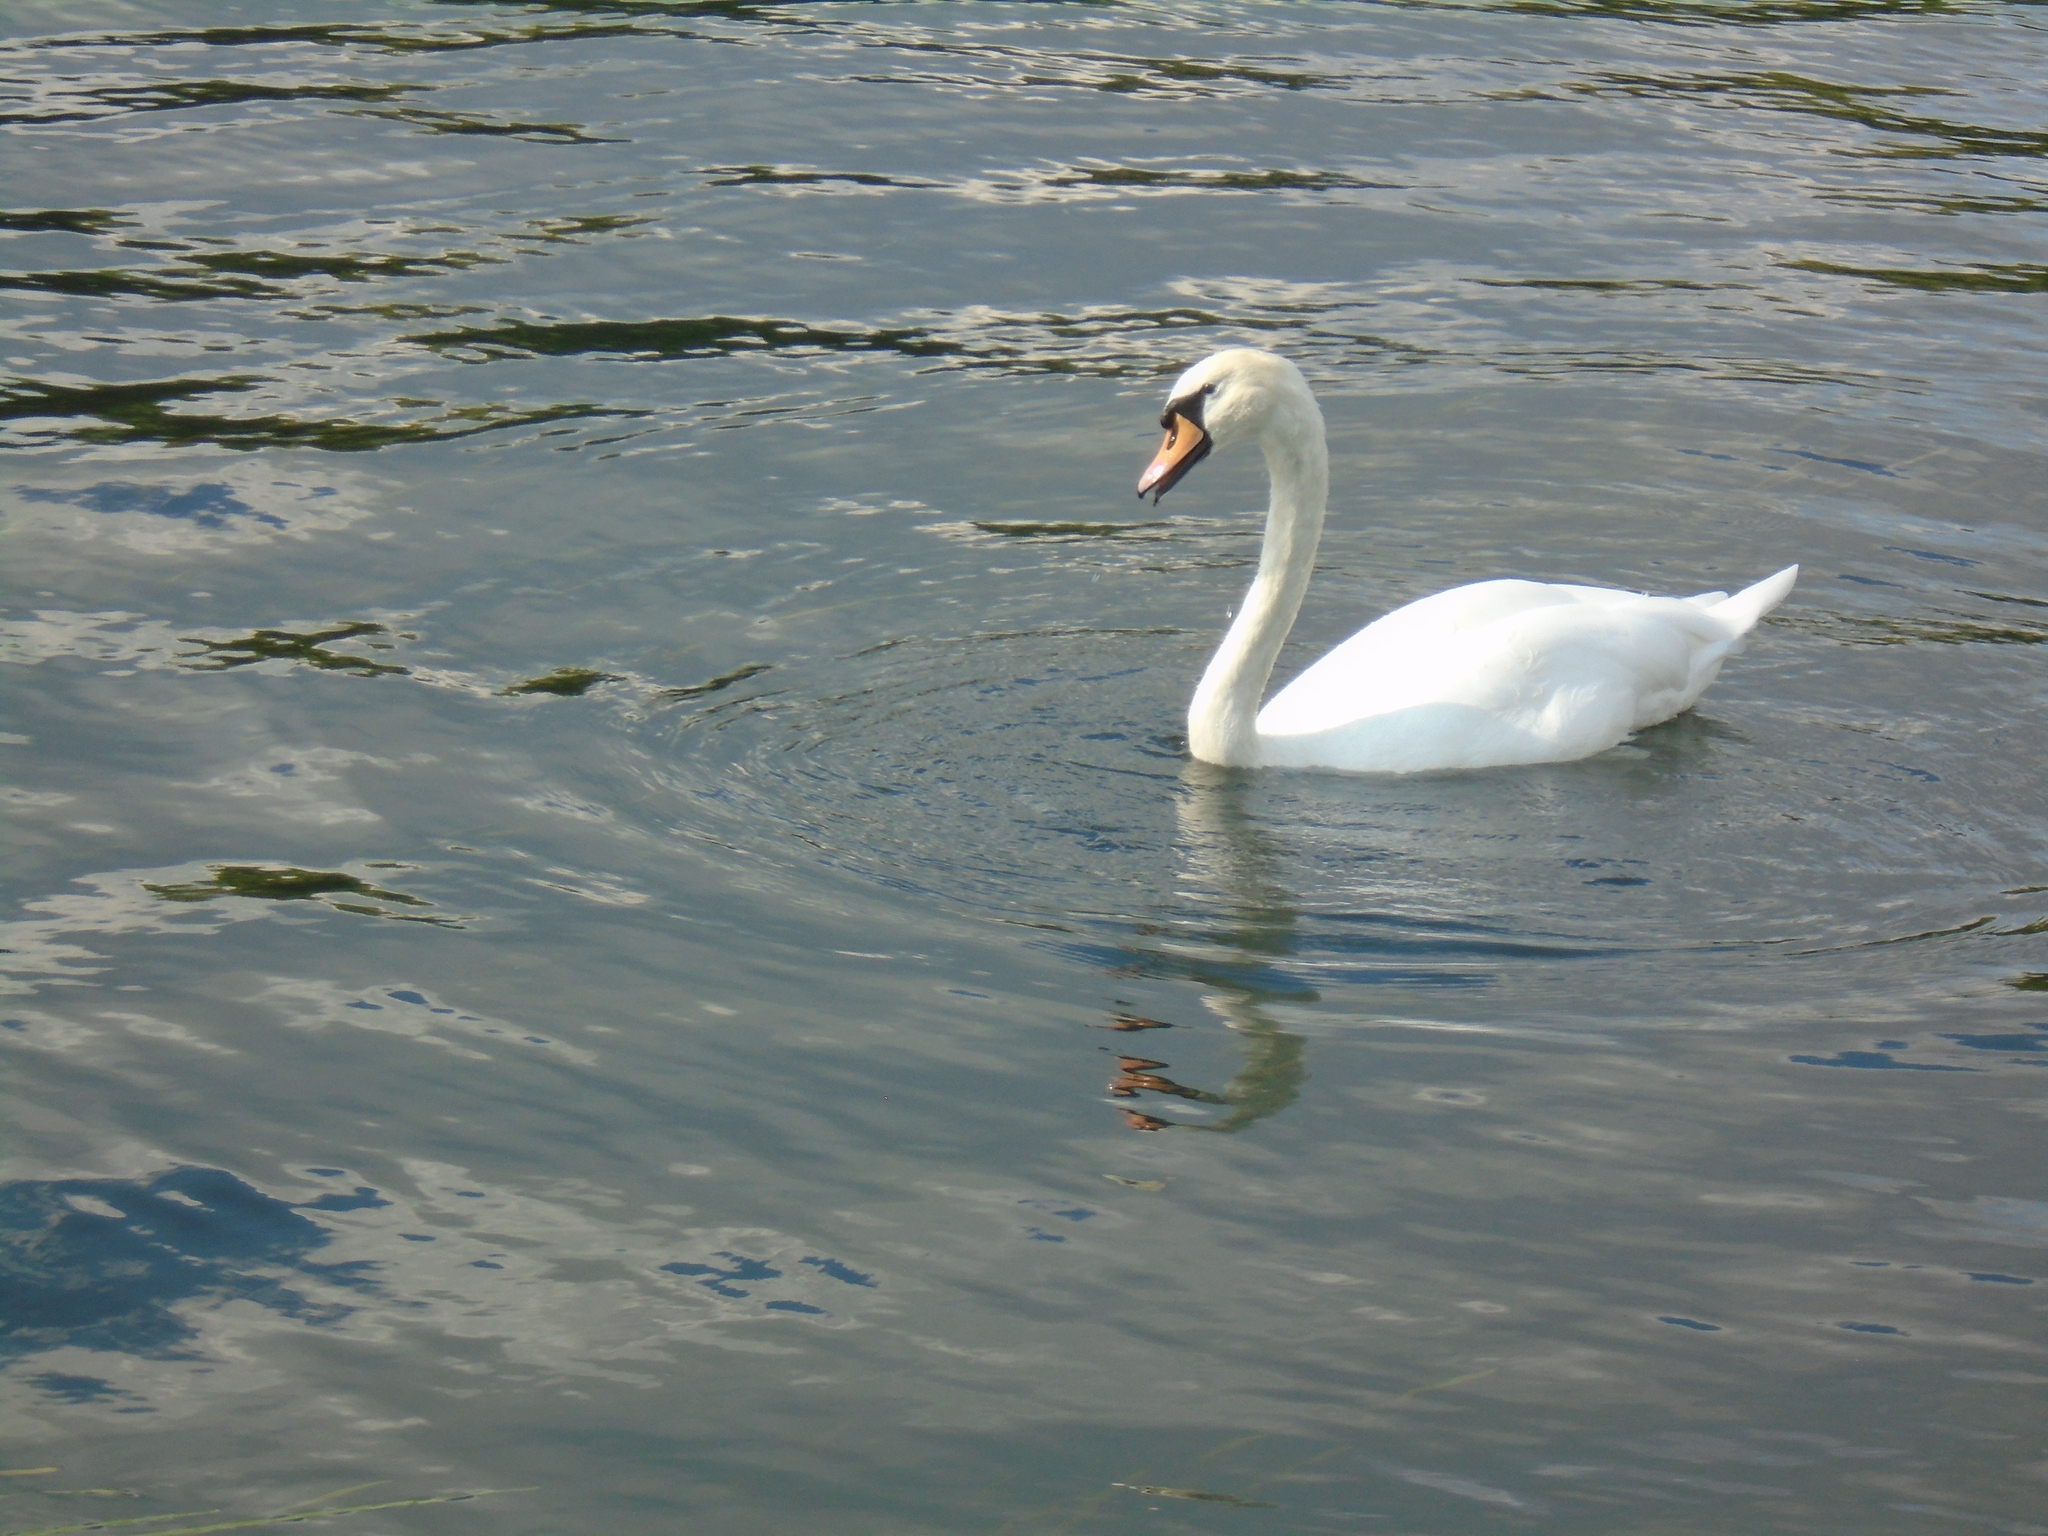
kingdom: Animalia
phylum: Chordata
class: Aves
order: Anseriformes
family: Anatidae
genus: Cygnus
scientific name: Cygnus olor
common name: Mute swan
